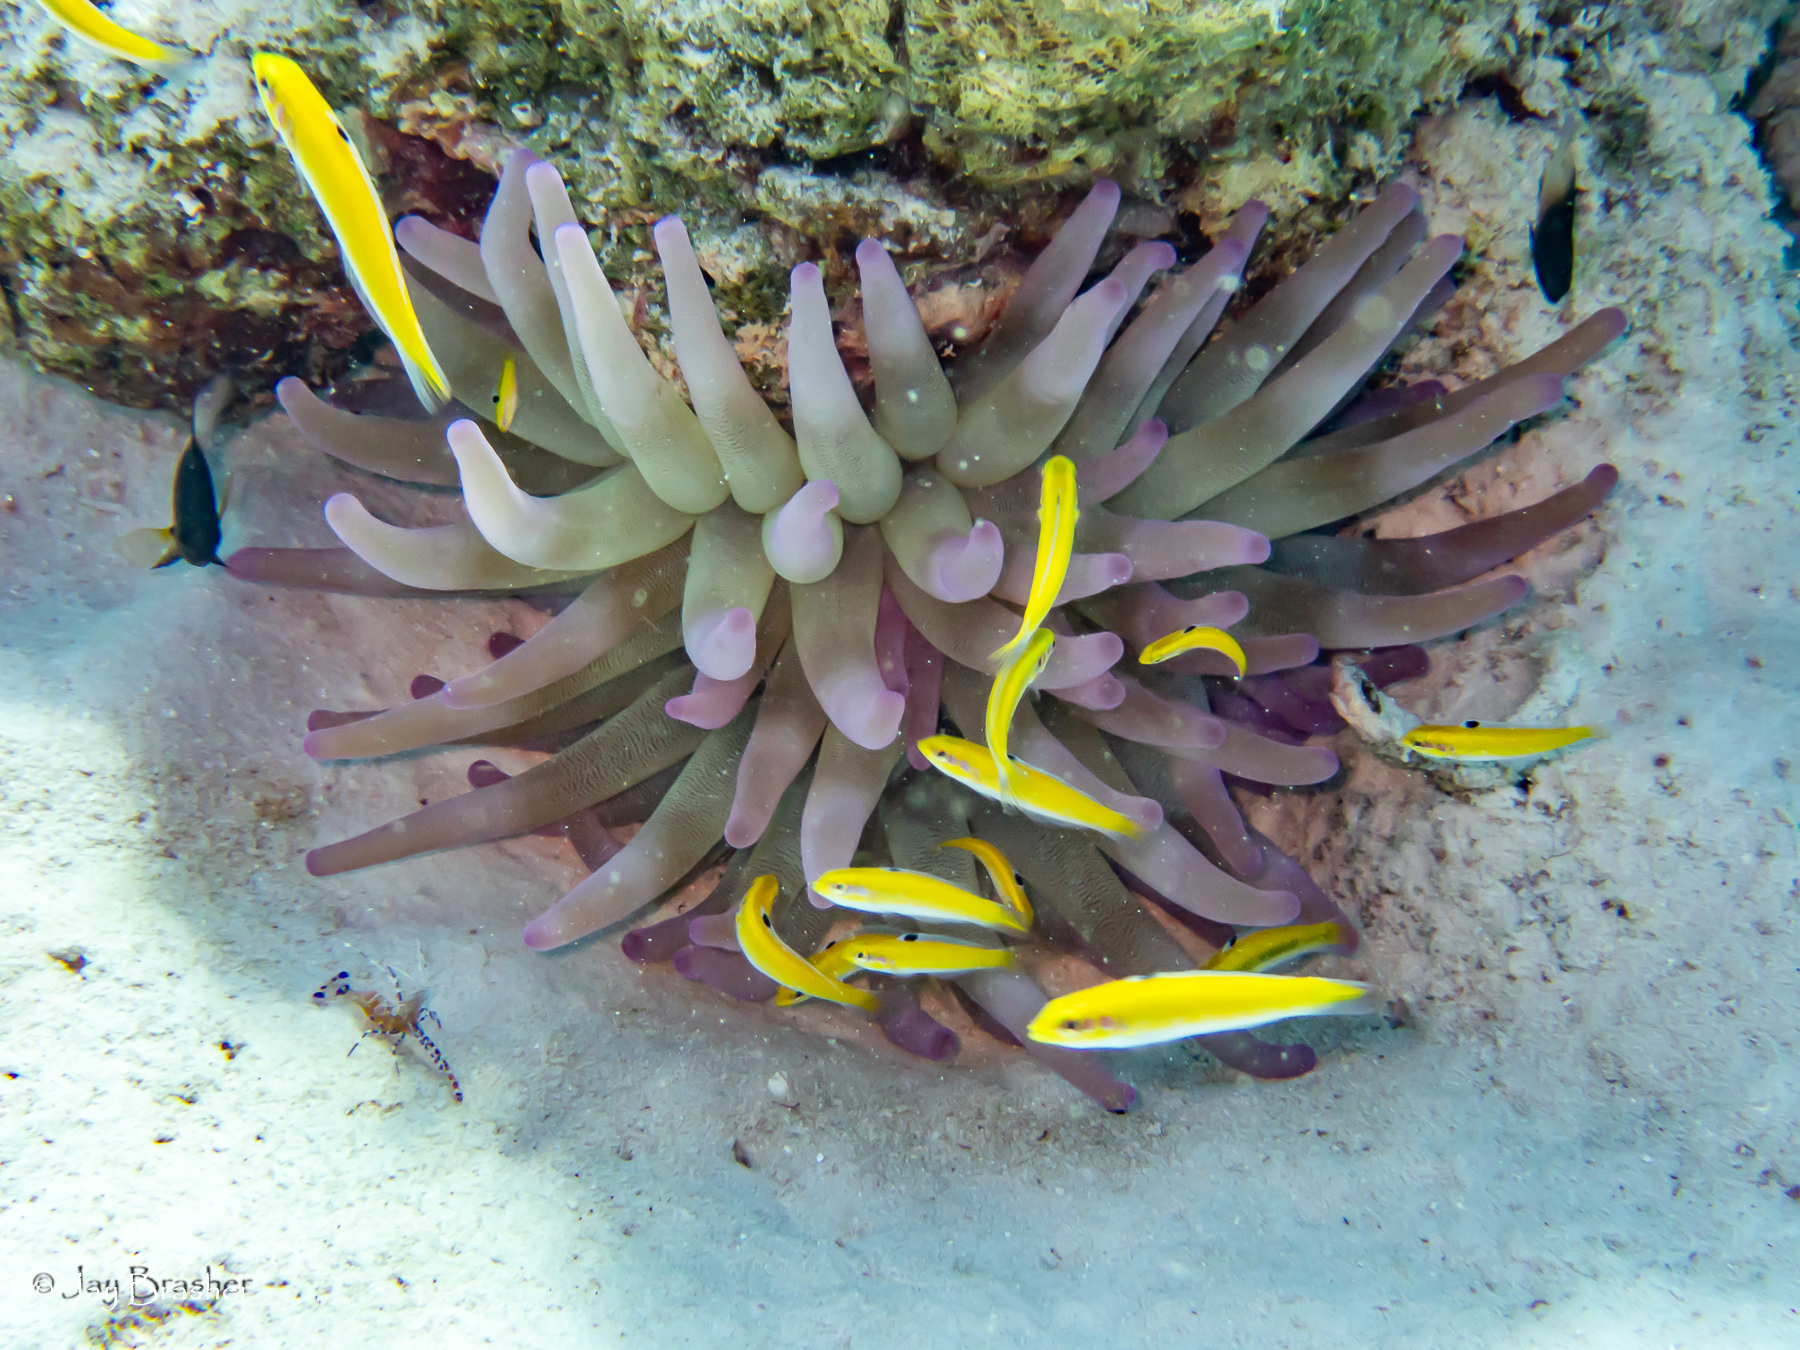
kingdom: Animalia
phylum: Chordata
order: Perciformes
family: Labridae
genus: Thalassoma
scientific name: Thalassoma bifasciatum
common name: Bluehead wrasse
